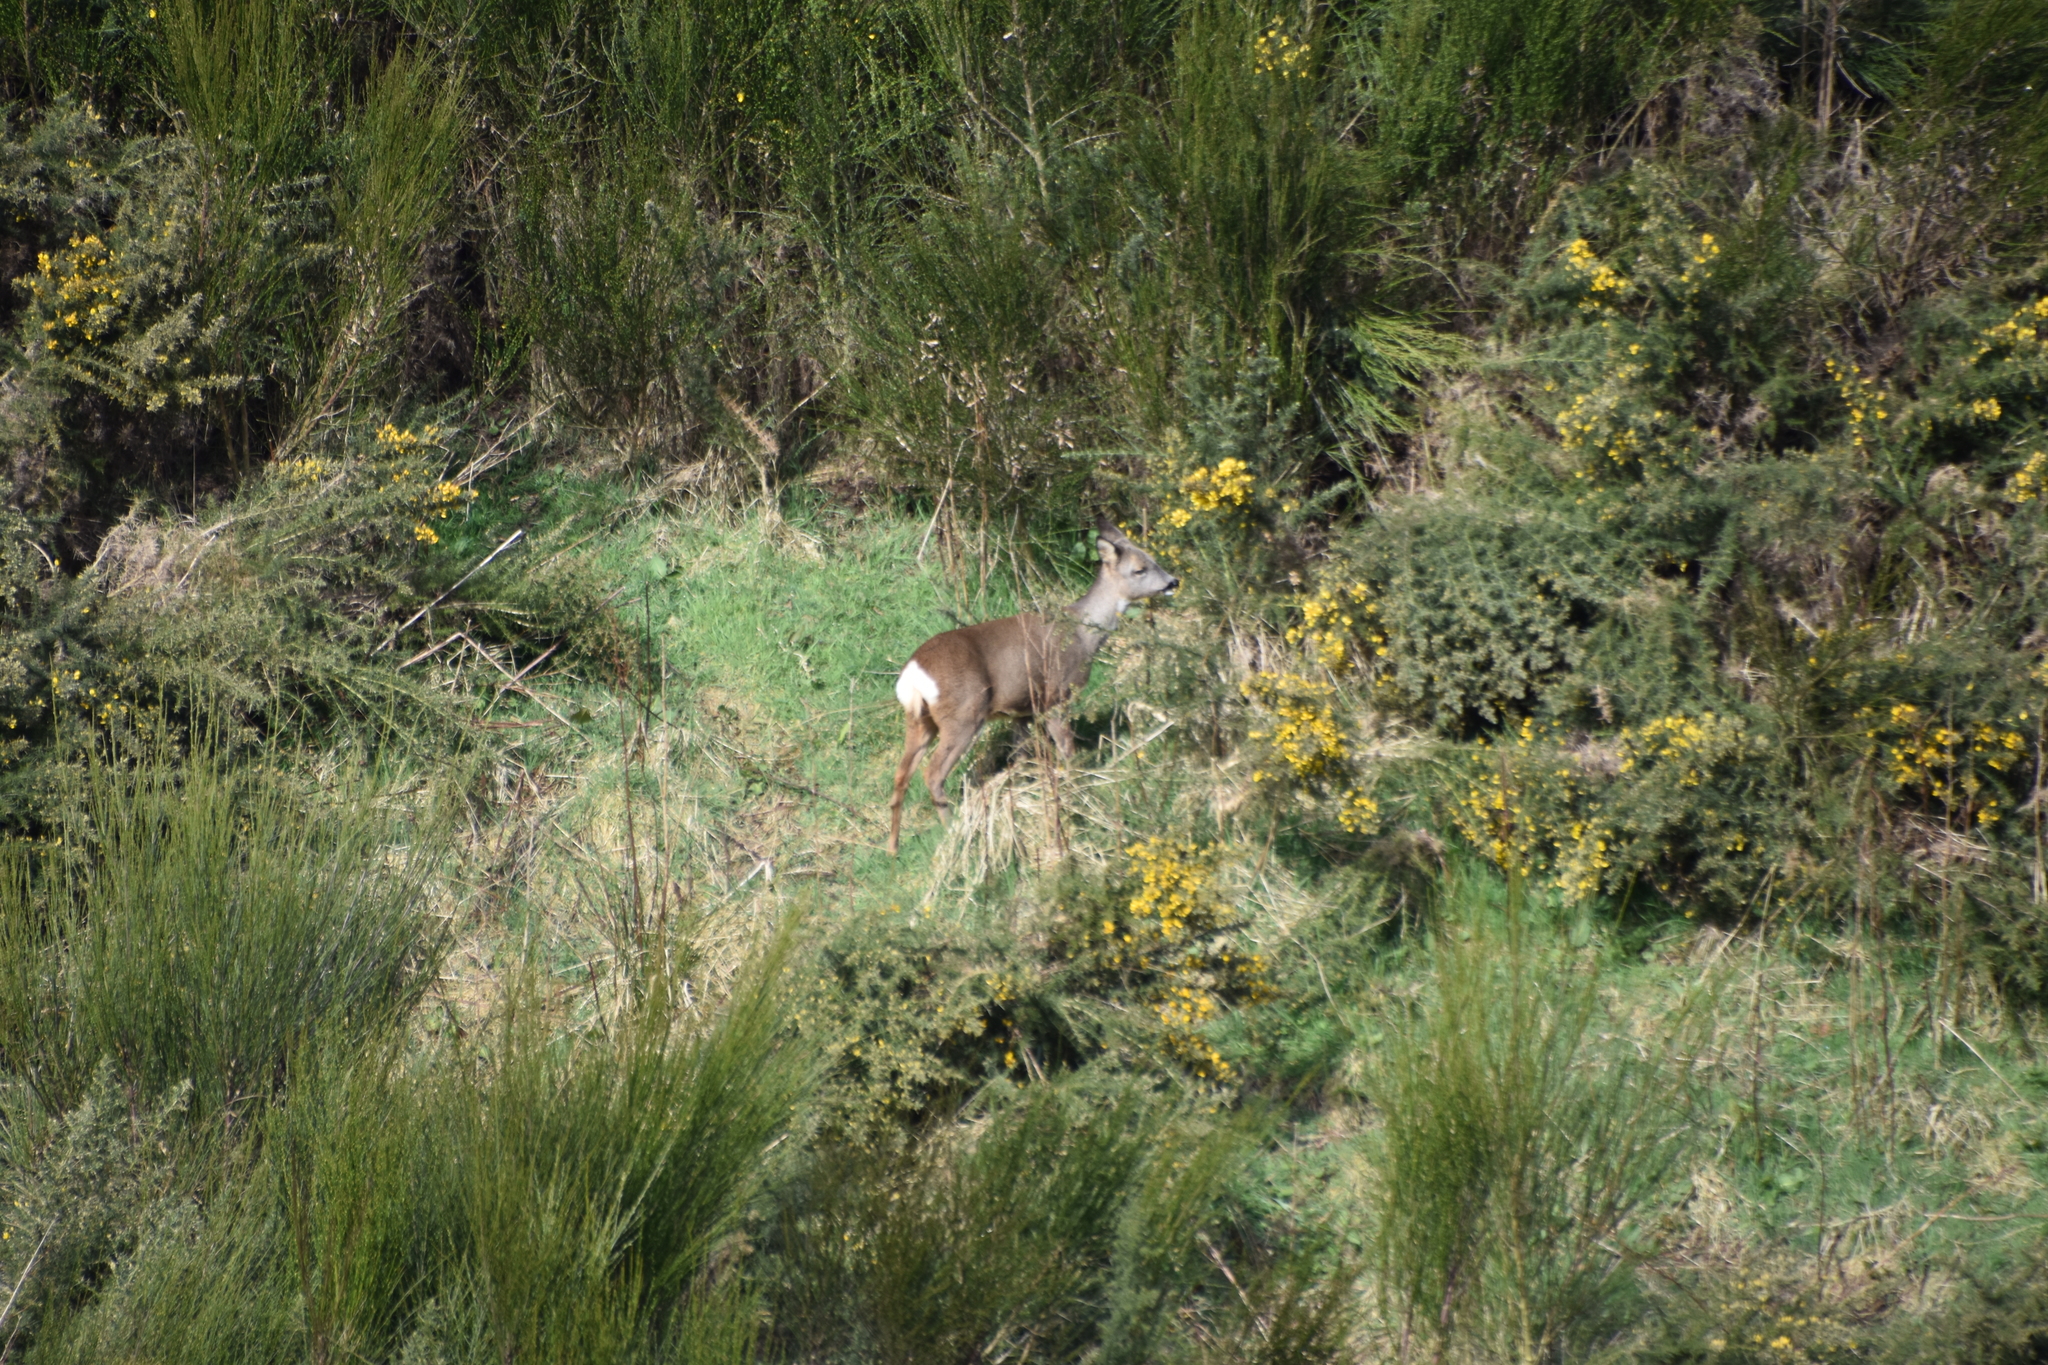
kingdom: Animalia
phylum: Chordata
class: Mammalia
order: Artiodactyla
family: Cervidae
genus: Capreolus
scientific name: Capreolus capreolus
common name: Western roe deer
